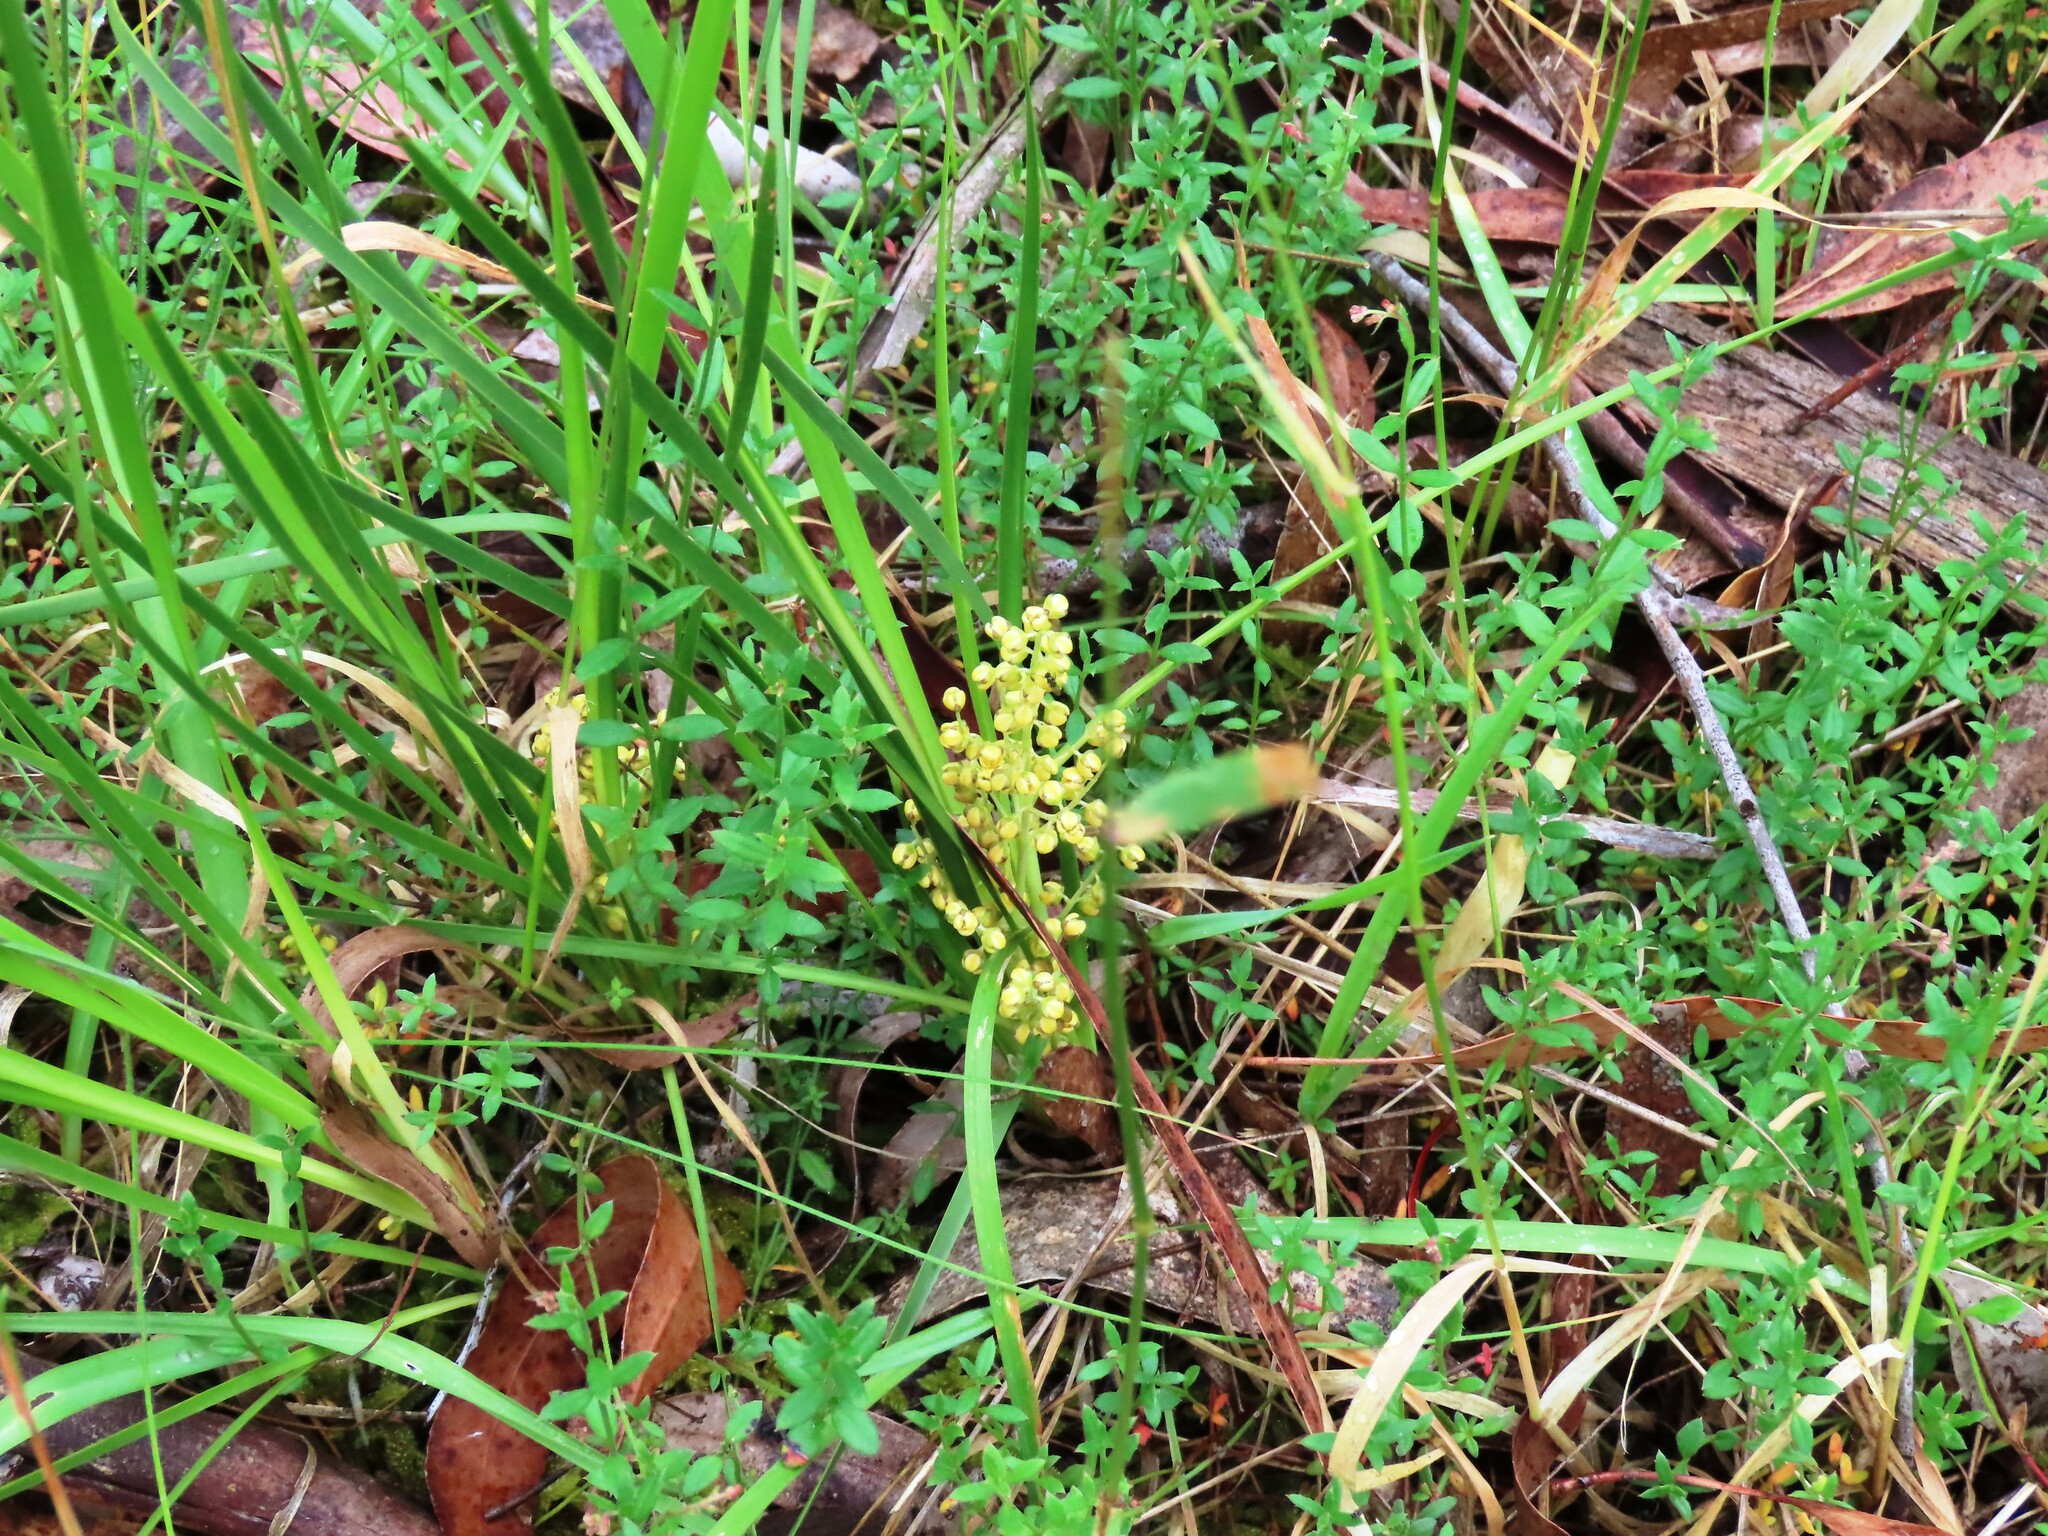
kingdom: Plantae
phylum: Tracheophyta
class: Liliopsida
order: Asparagales
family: Asparagaceae
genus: Lomandra
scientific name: Lomandra filiformis
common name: Wattle mat-rush
